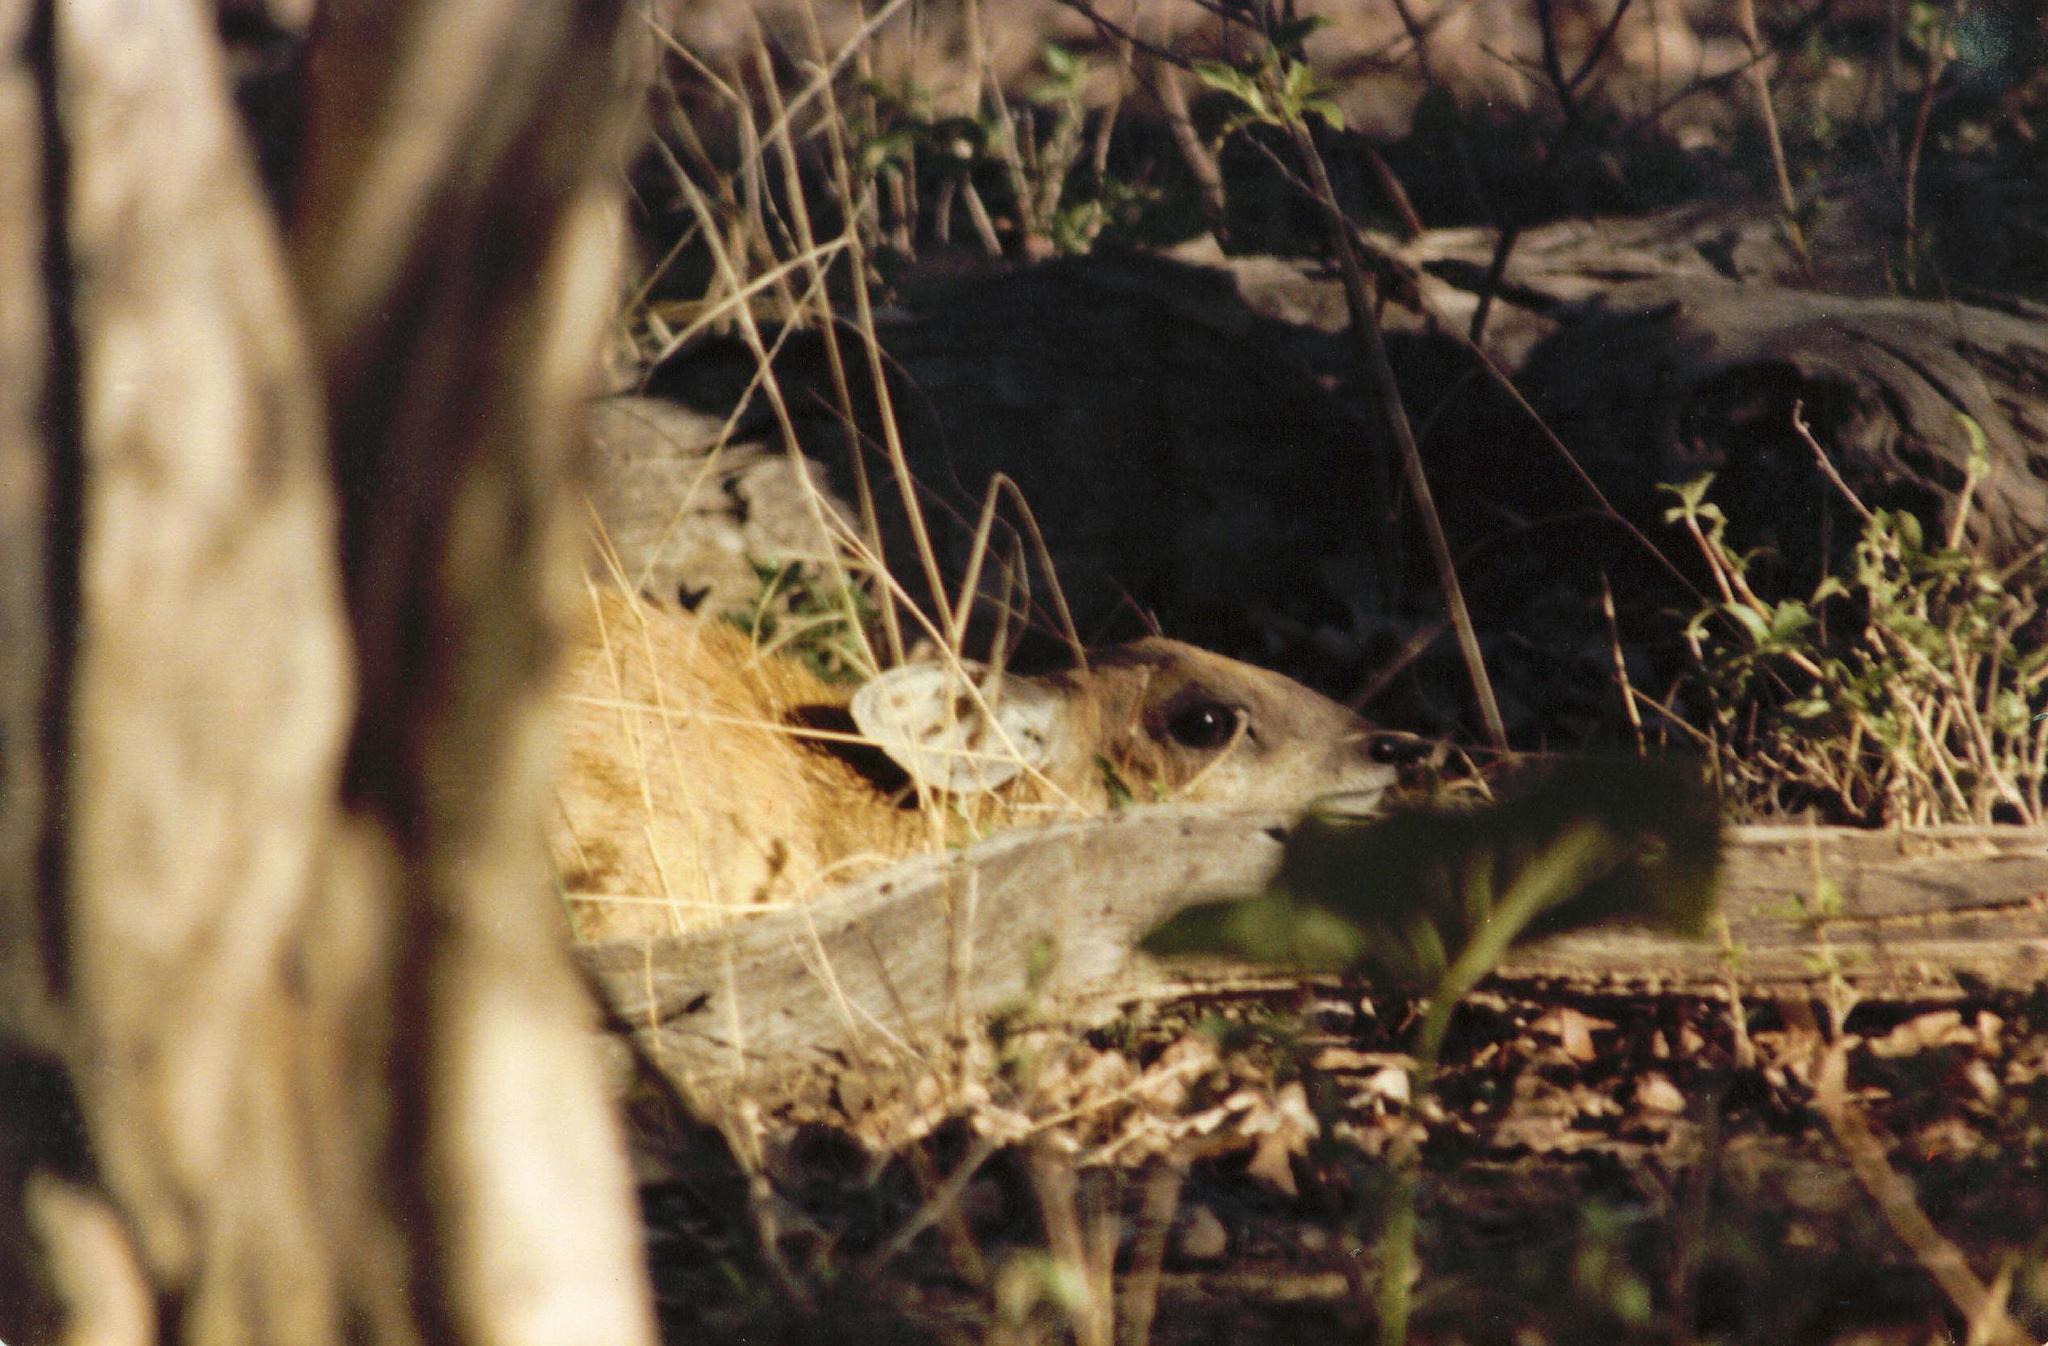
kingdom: Animalia
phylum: Chordata
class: Mammalia
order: Artiodactyla
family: Bovidae
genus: Raphicerus
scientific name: Raphicerus sharpei
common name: Sharpe's grysbok
